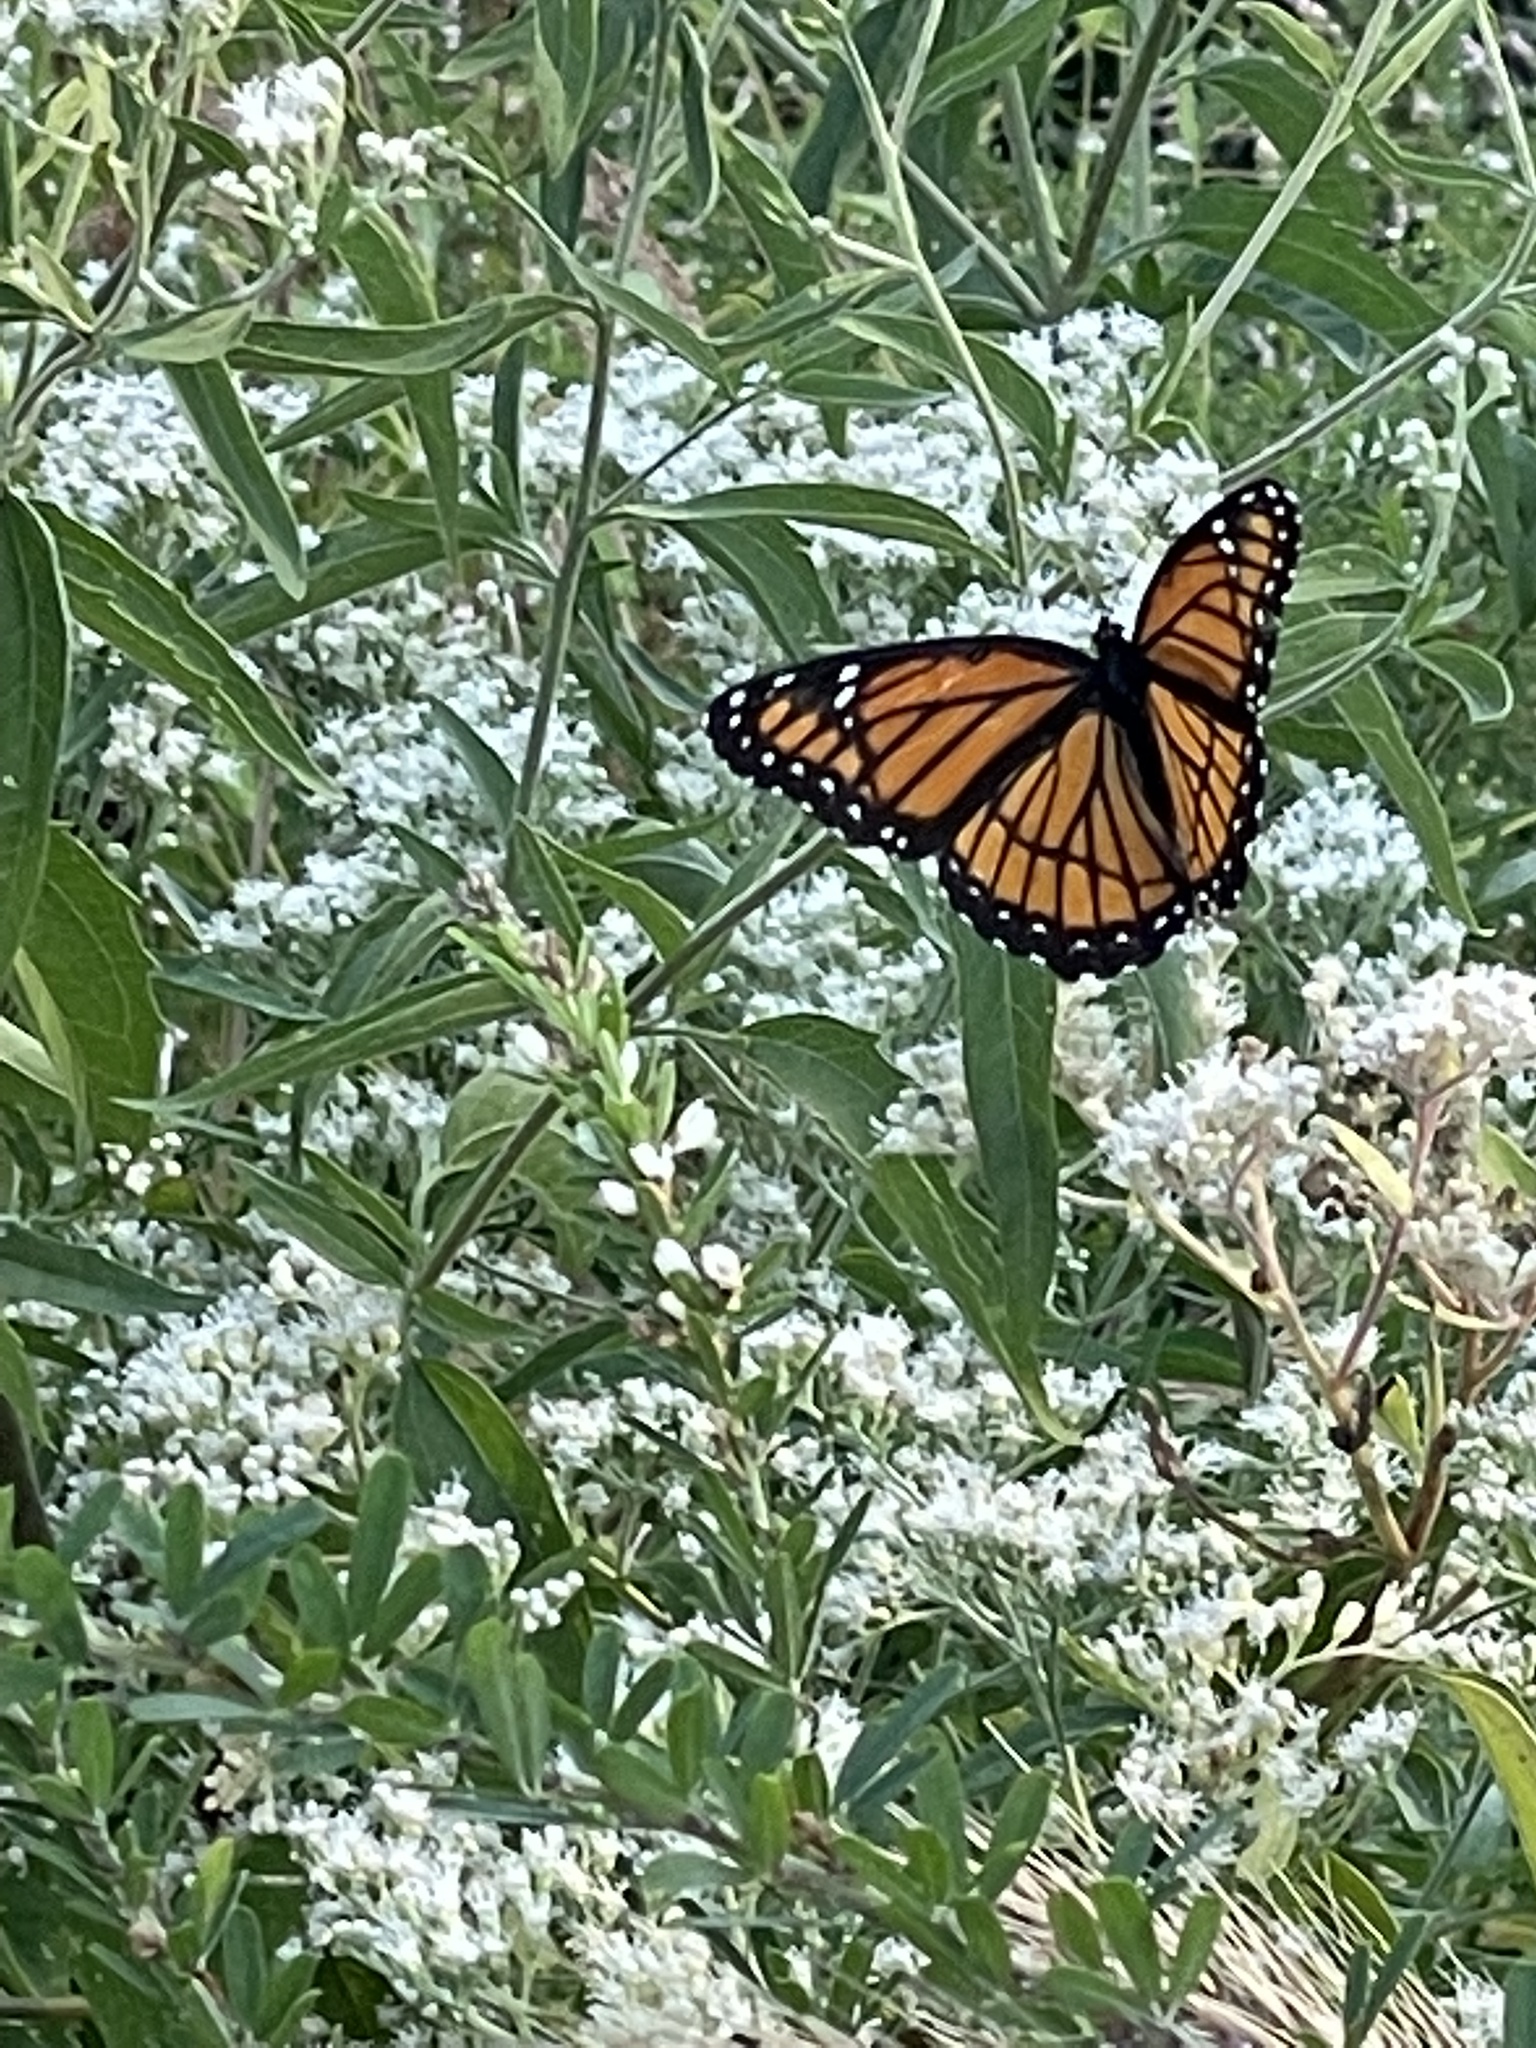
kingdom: Animalia
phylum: Arthropoda
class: Insecta
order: Lepidoptera
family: Nymphalidae
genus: Limenitis
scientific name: Limenitis archippus
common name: Viceroy
